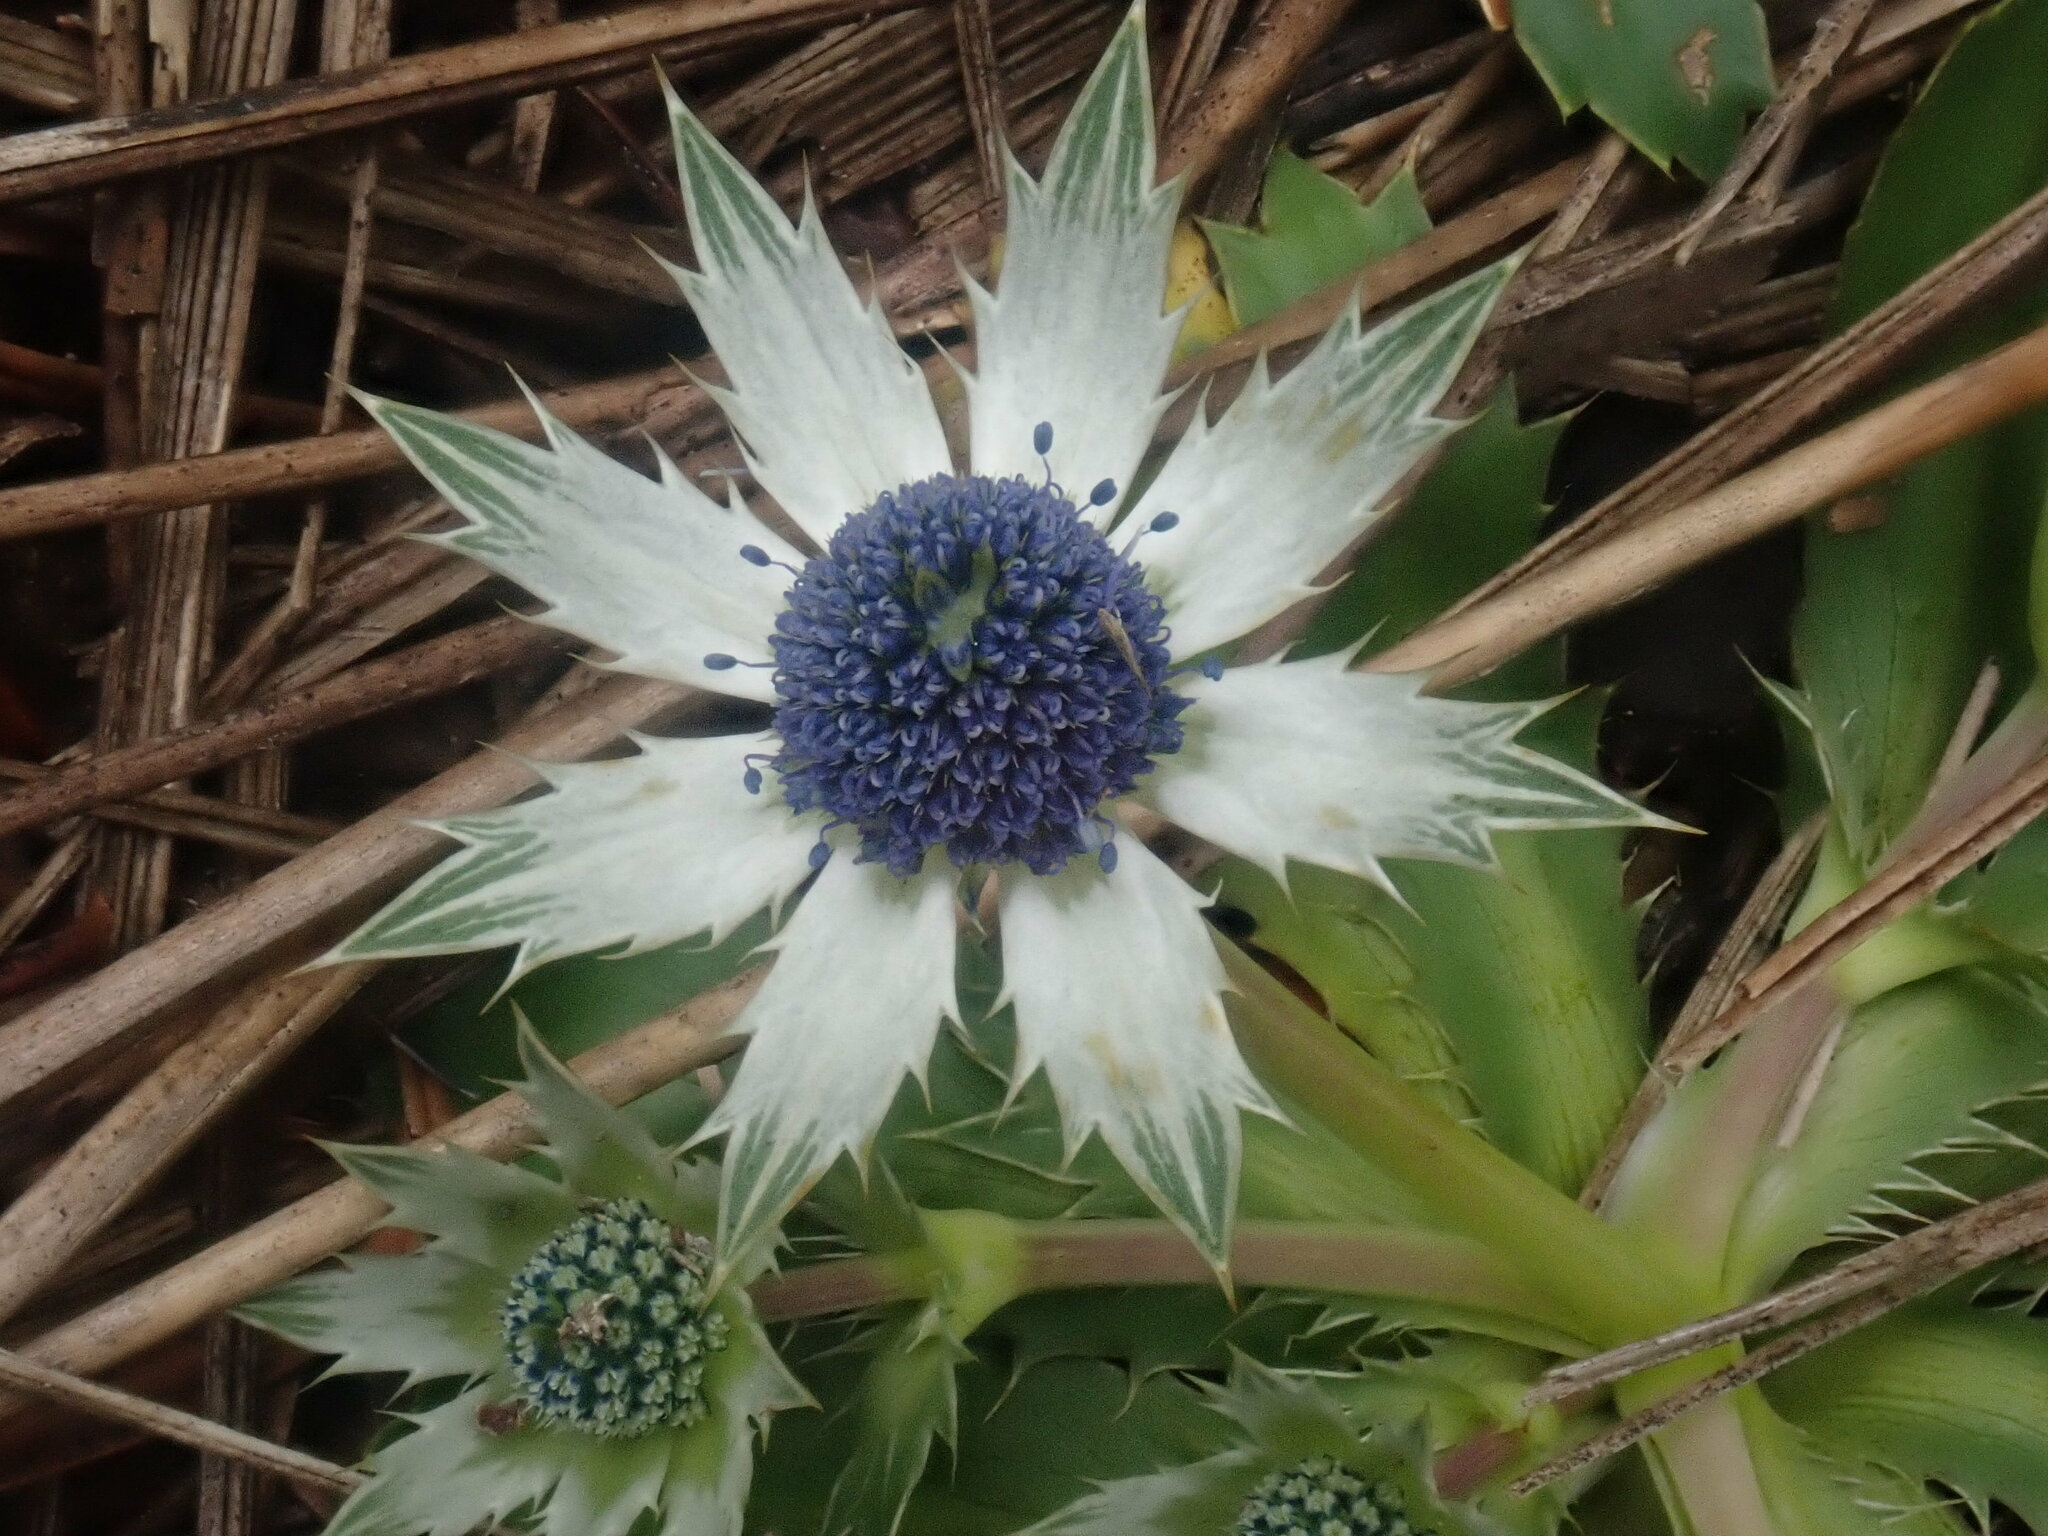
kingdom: Plantae
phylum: Tracheophyta
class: Magnoliopsida
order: Apiales
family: Apiaceae
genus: Eryngium
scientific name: Eryngium carlinae
